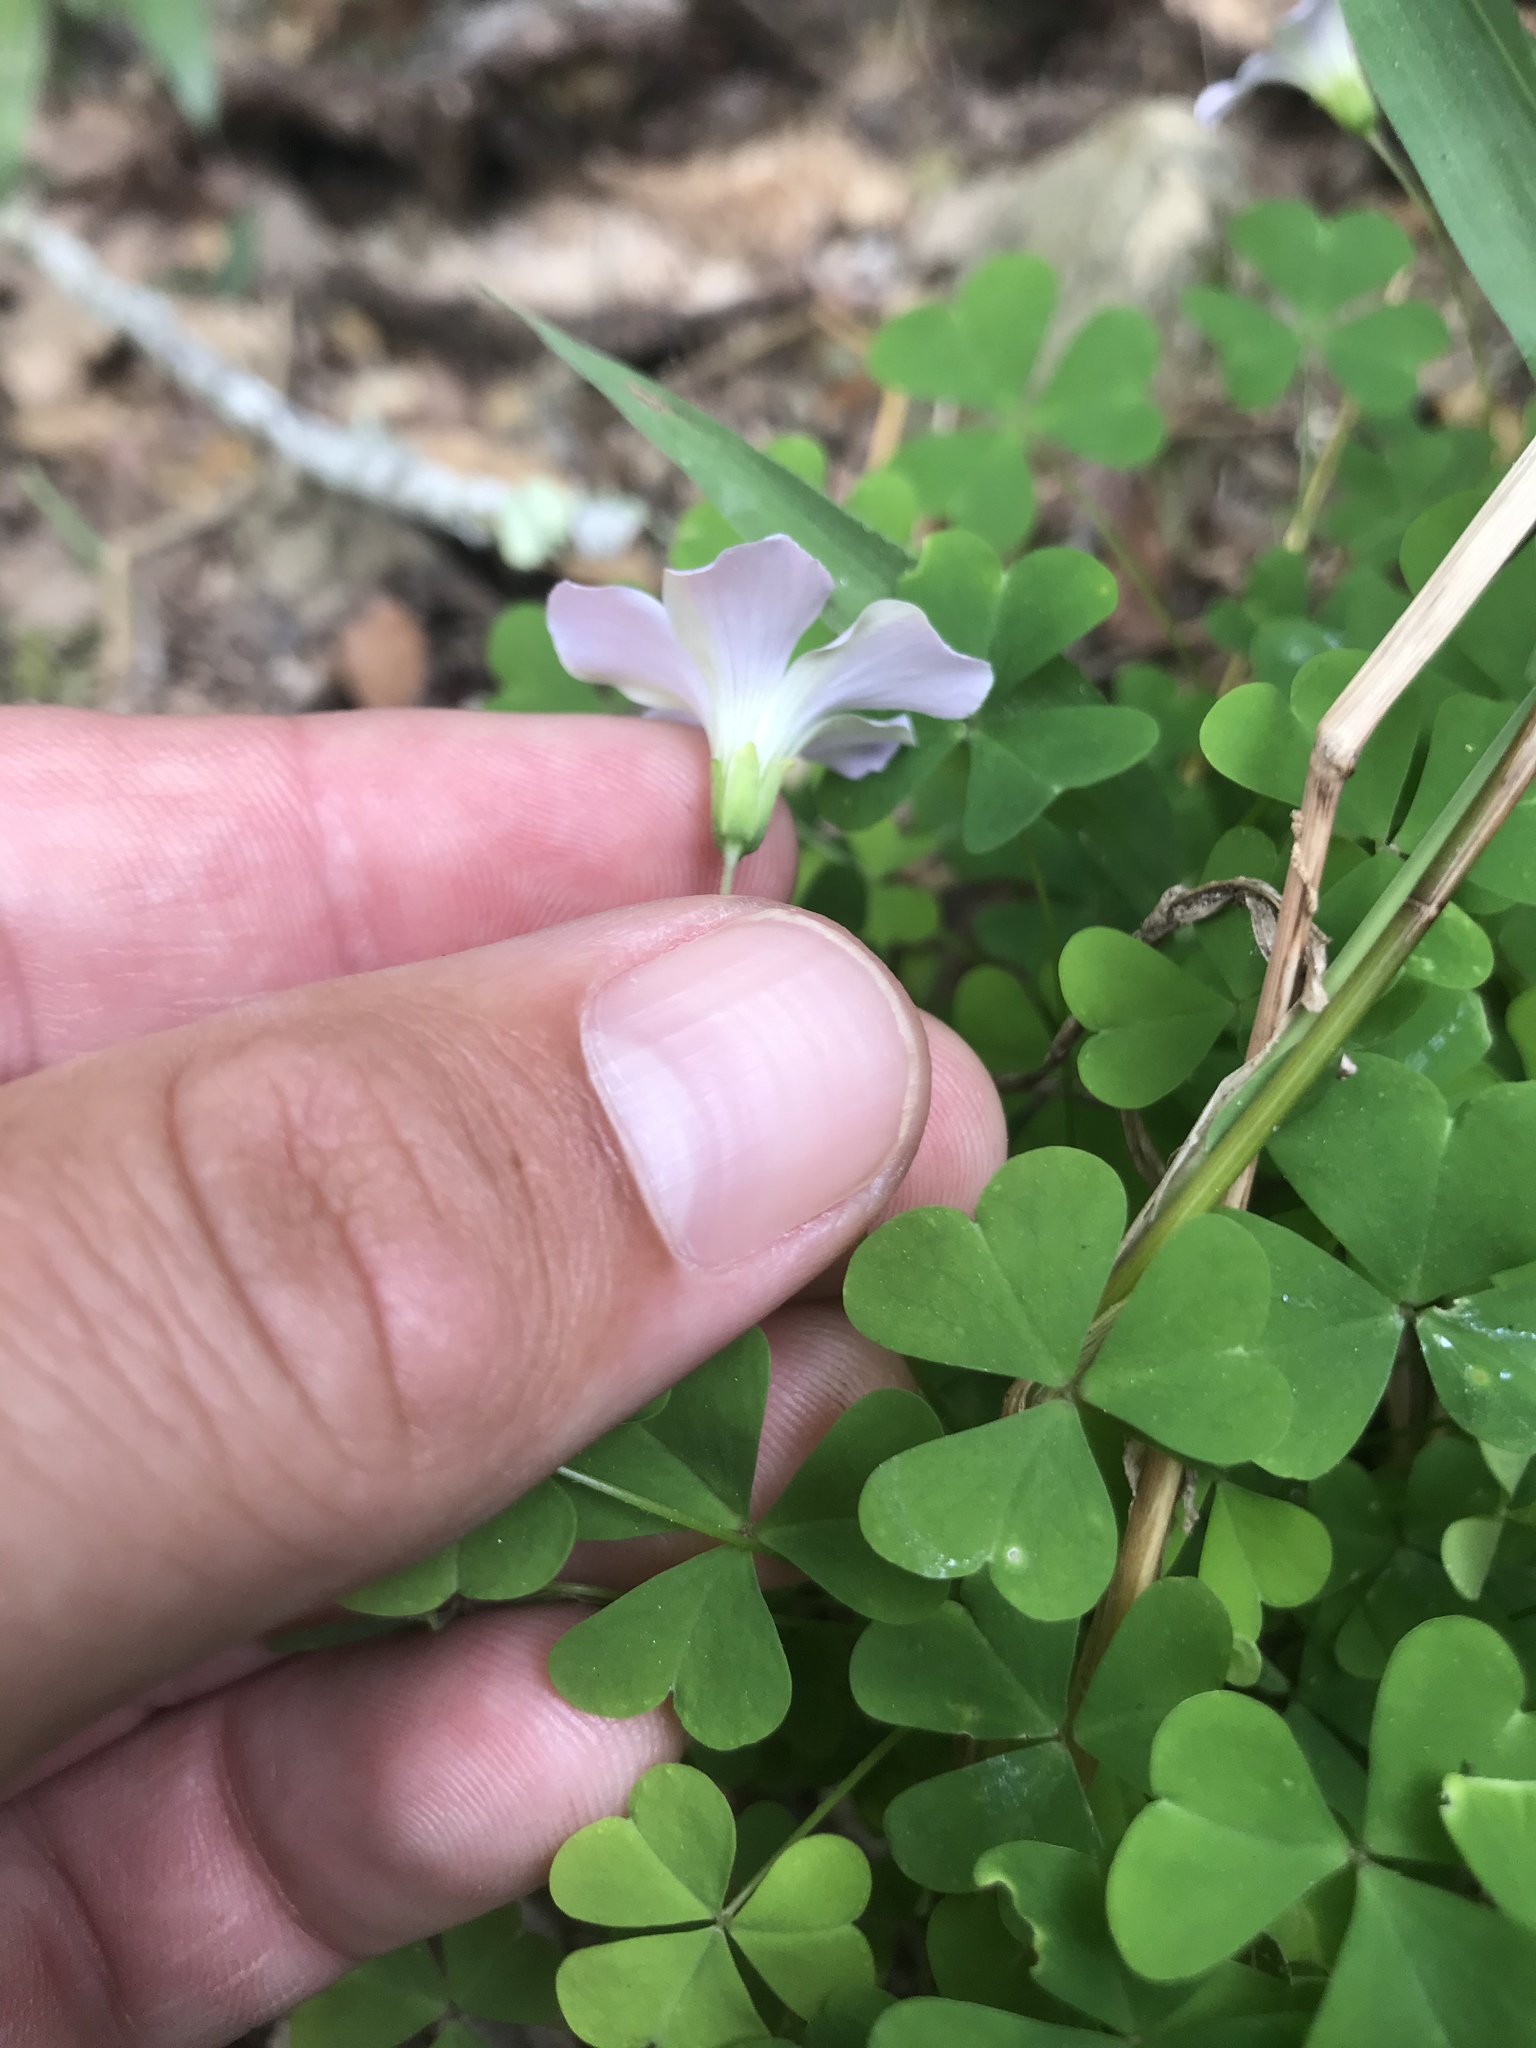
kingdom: Plantae
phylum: Tracheophyta
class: Magnoliopsida
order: Oxalidales
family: Oxalidaceae
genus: Oxalis
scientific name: Oxalis incarnata
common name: Pale pink-sorrel
